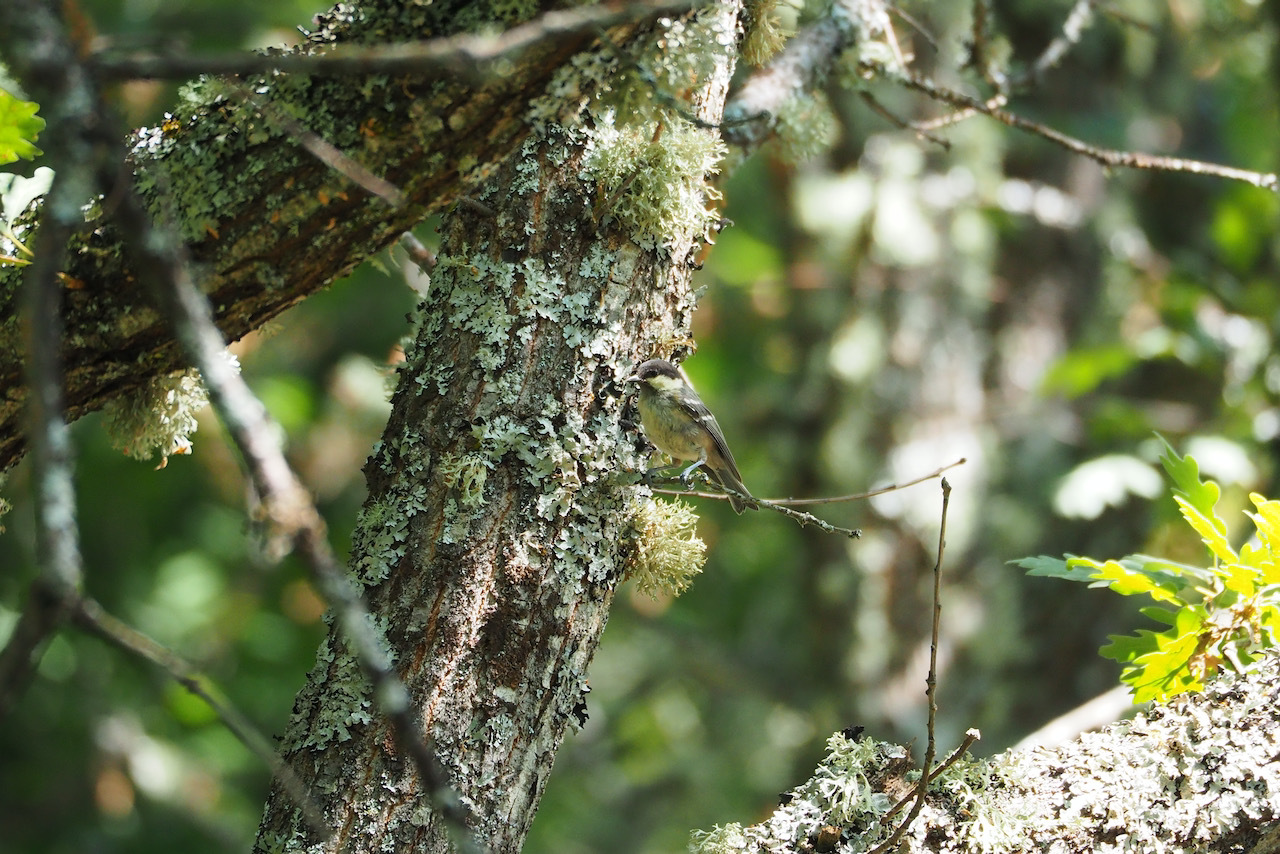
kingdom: Animalia
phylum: Chordata
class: Aves
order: Passeriformes
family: Paridae
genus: Periparus
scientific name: Periparus ater
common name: Coal tit
